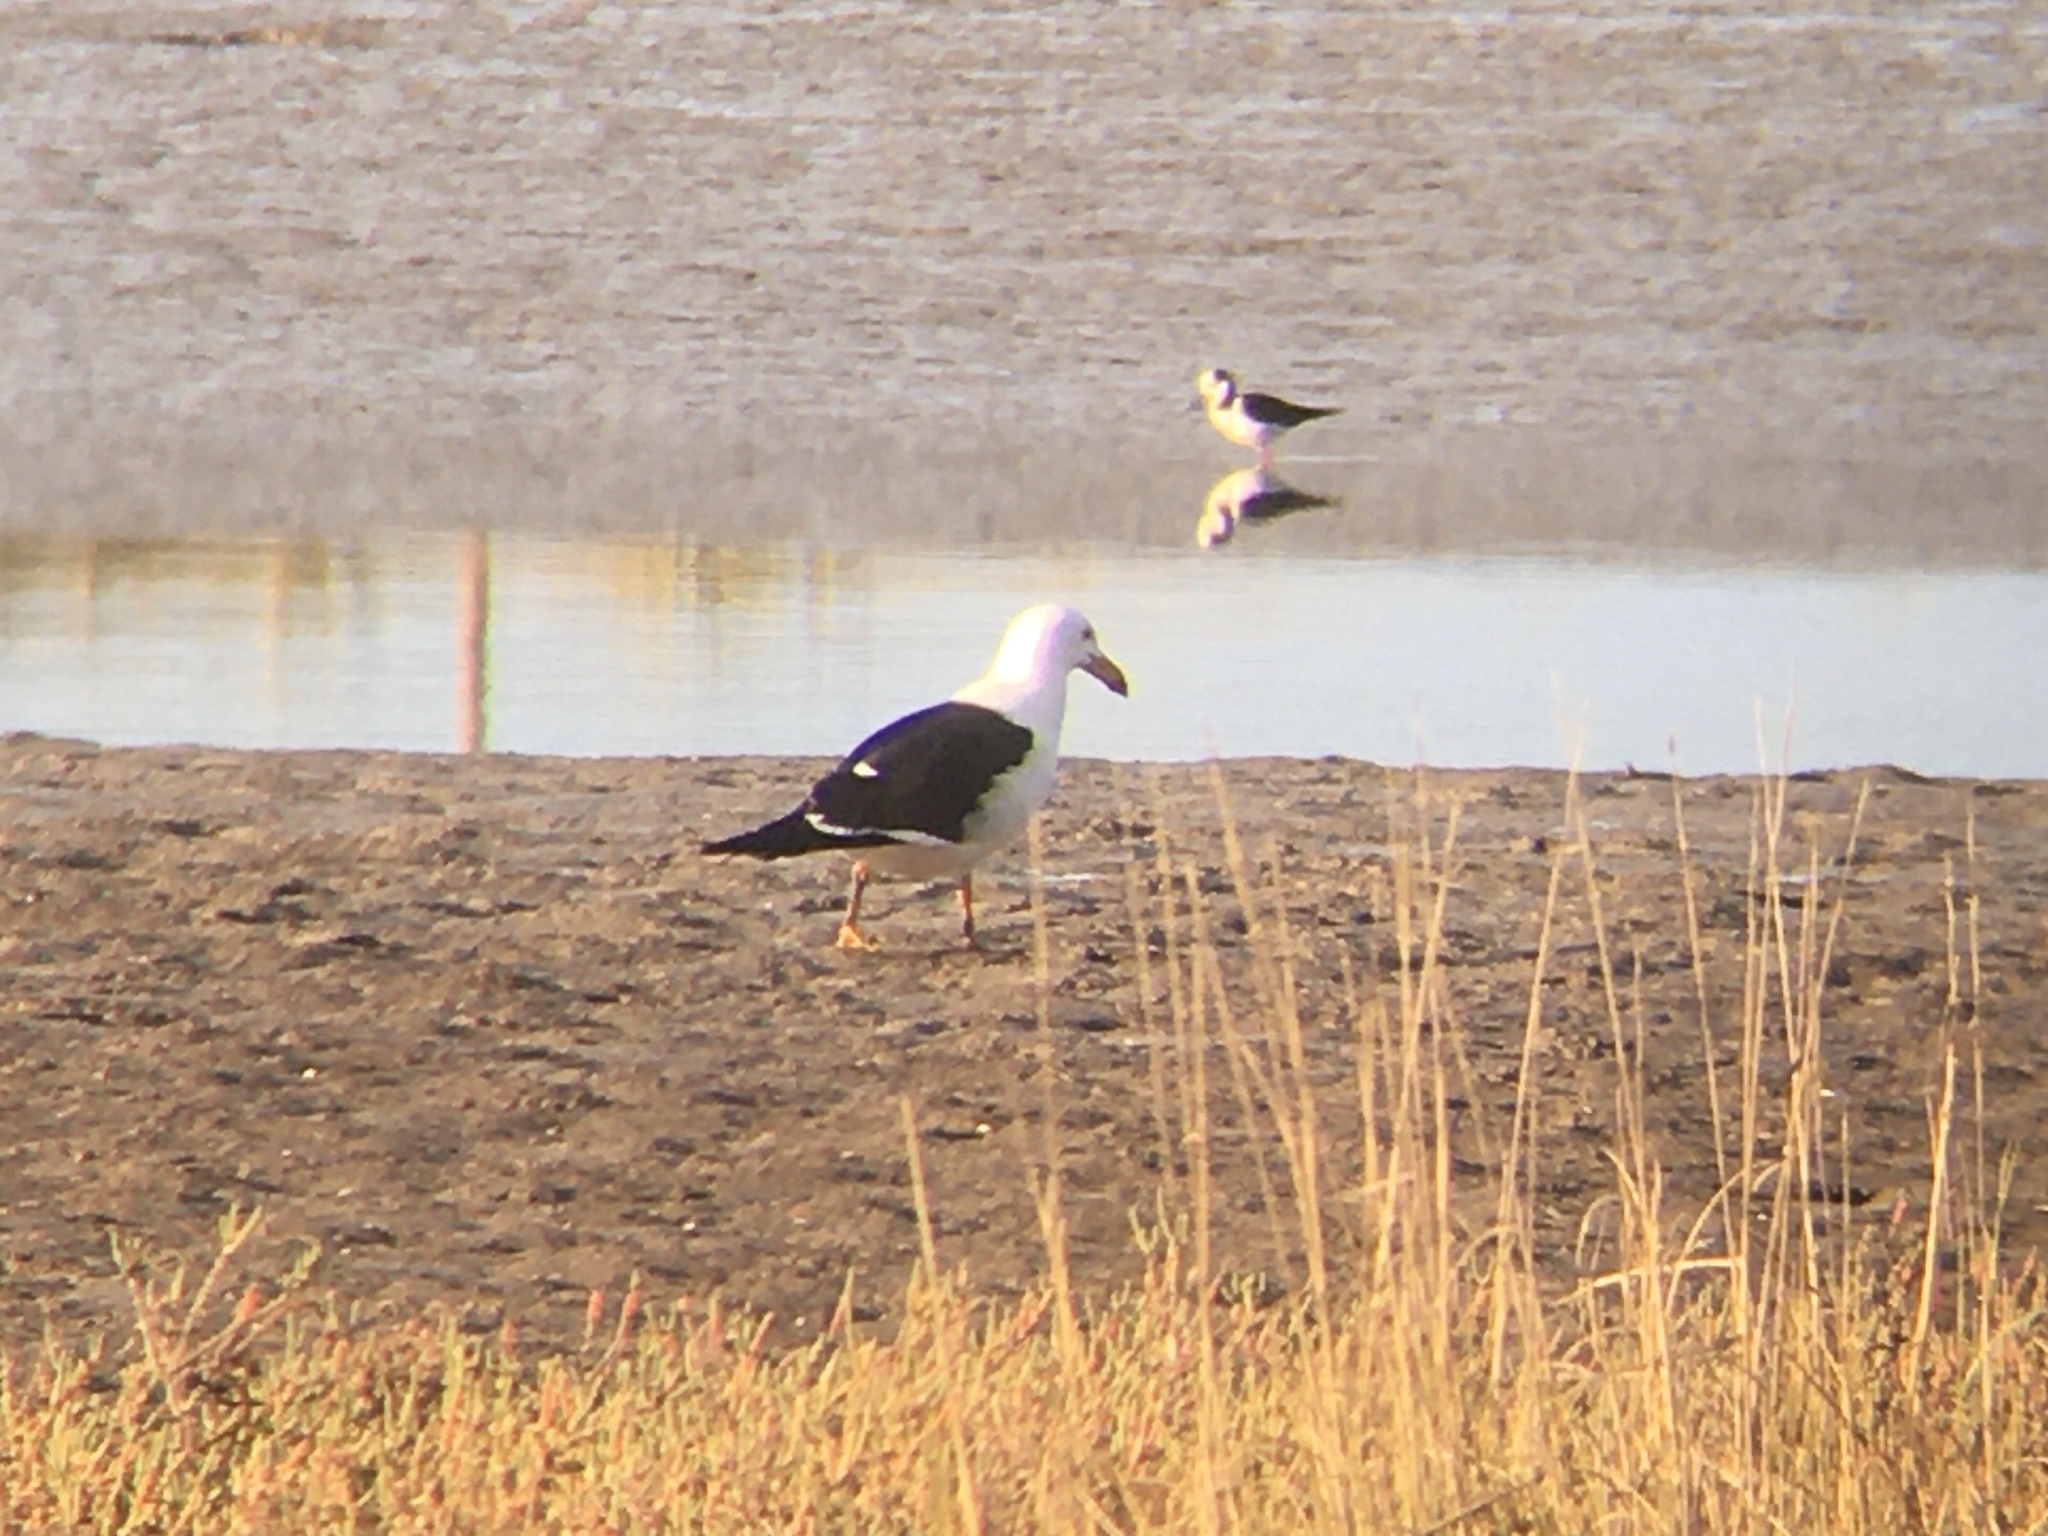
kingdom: Animalia
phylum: Chordata
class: Aves
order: Charadriiformes
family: Laridae
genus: Larus
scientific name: Larus atlanticus
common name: Olrog's gull
